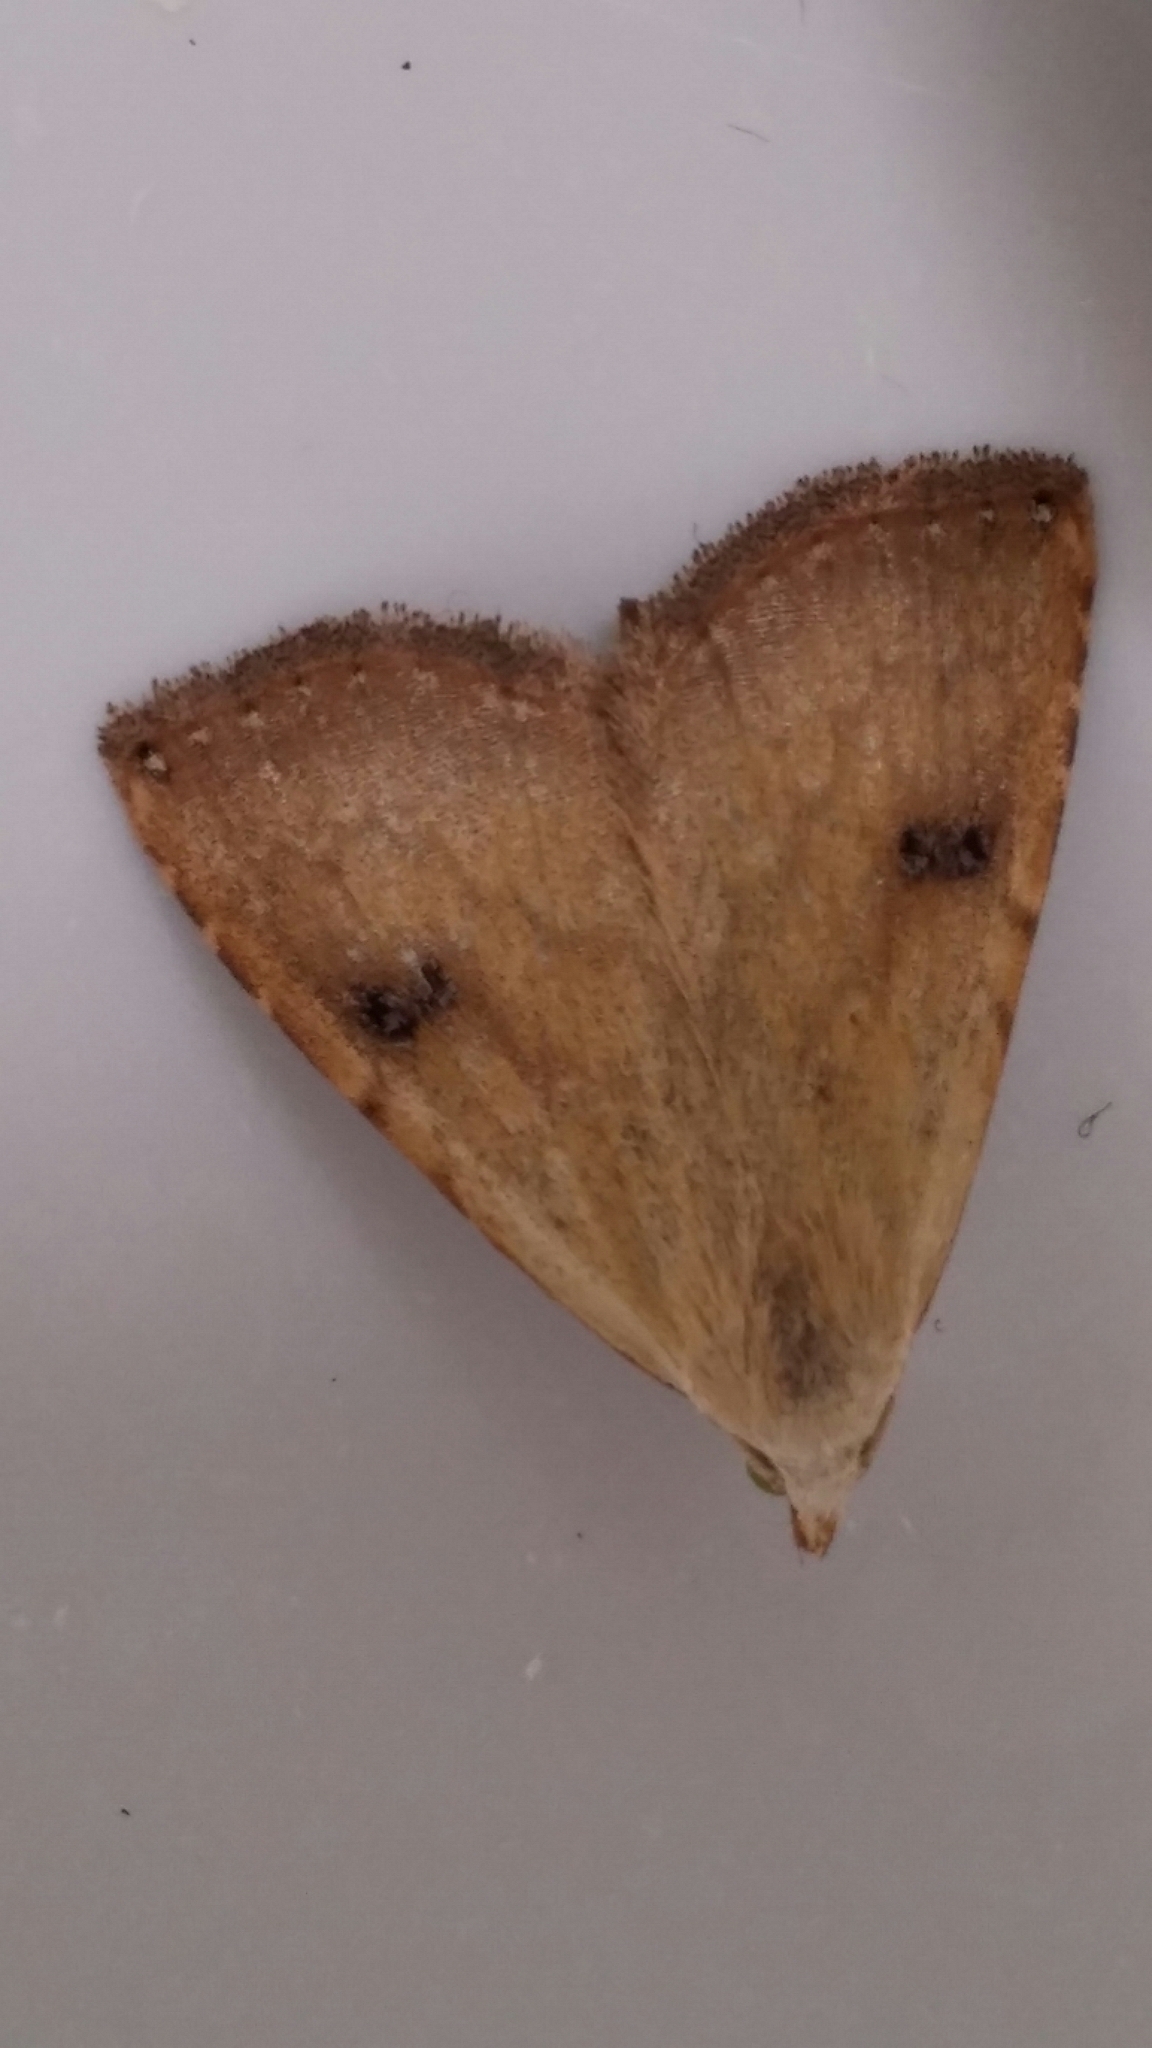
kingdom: Animalia
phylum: Arthropoda
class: Insecta
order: Lepidoptera
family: Erebidae
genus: Rivula
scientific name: Rivula sericealis
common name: Straw dot
